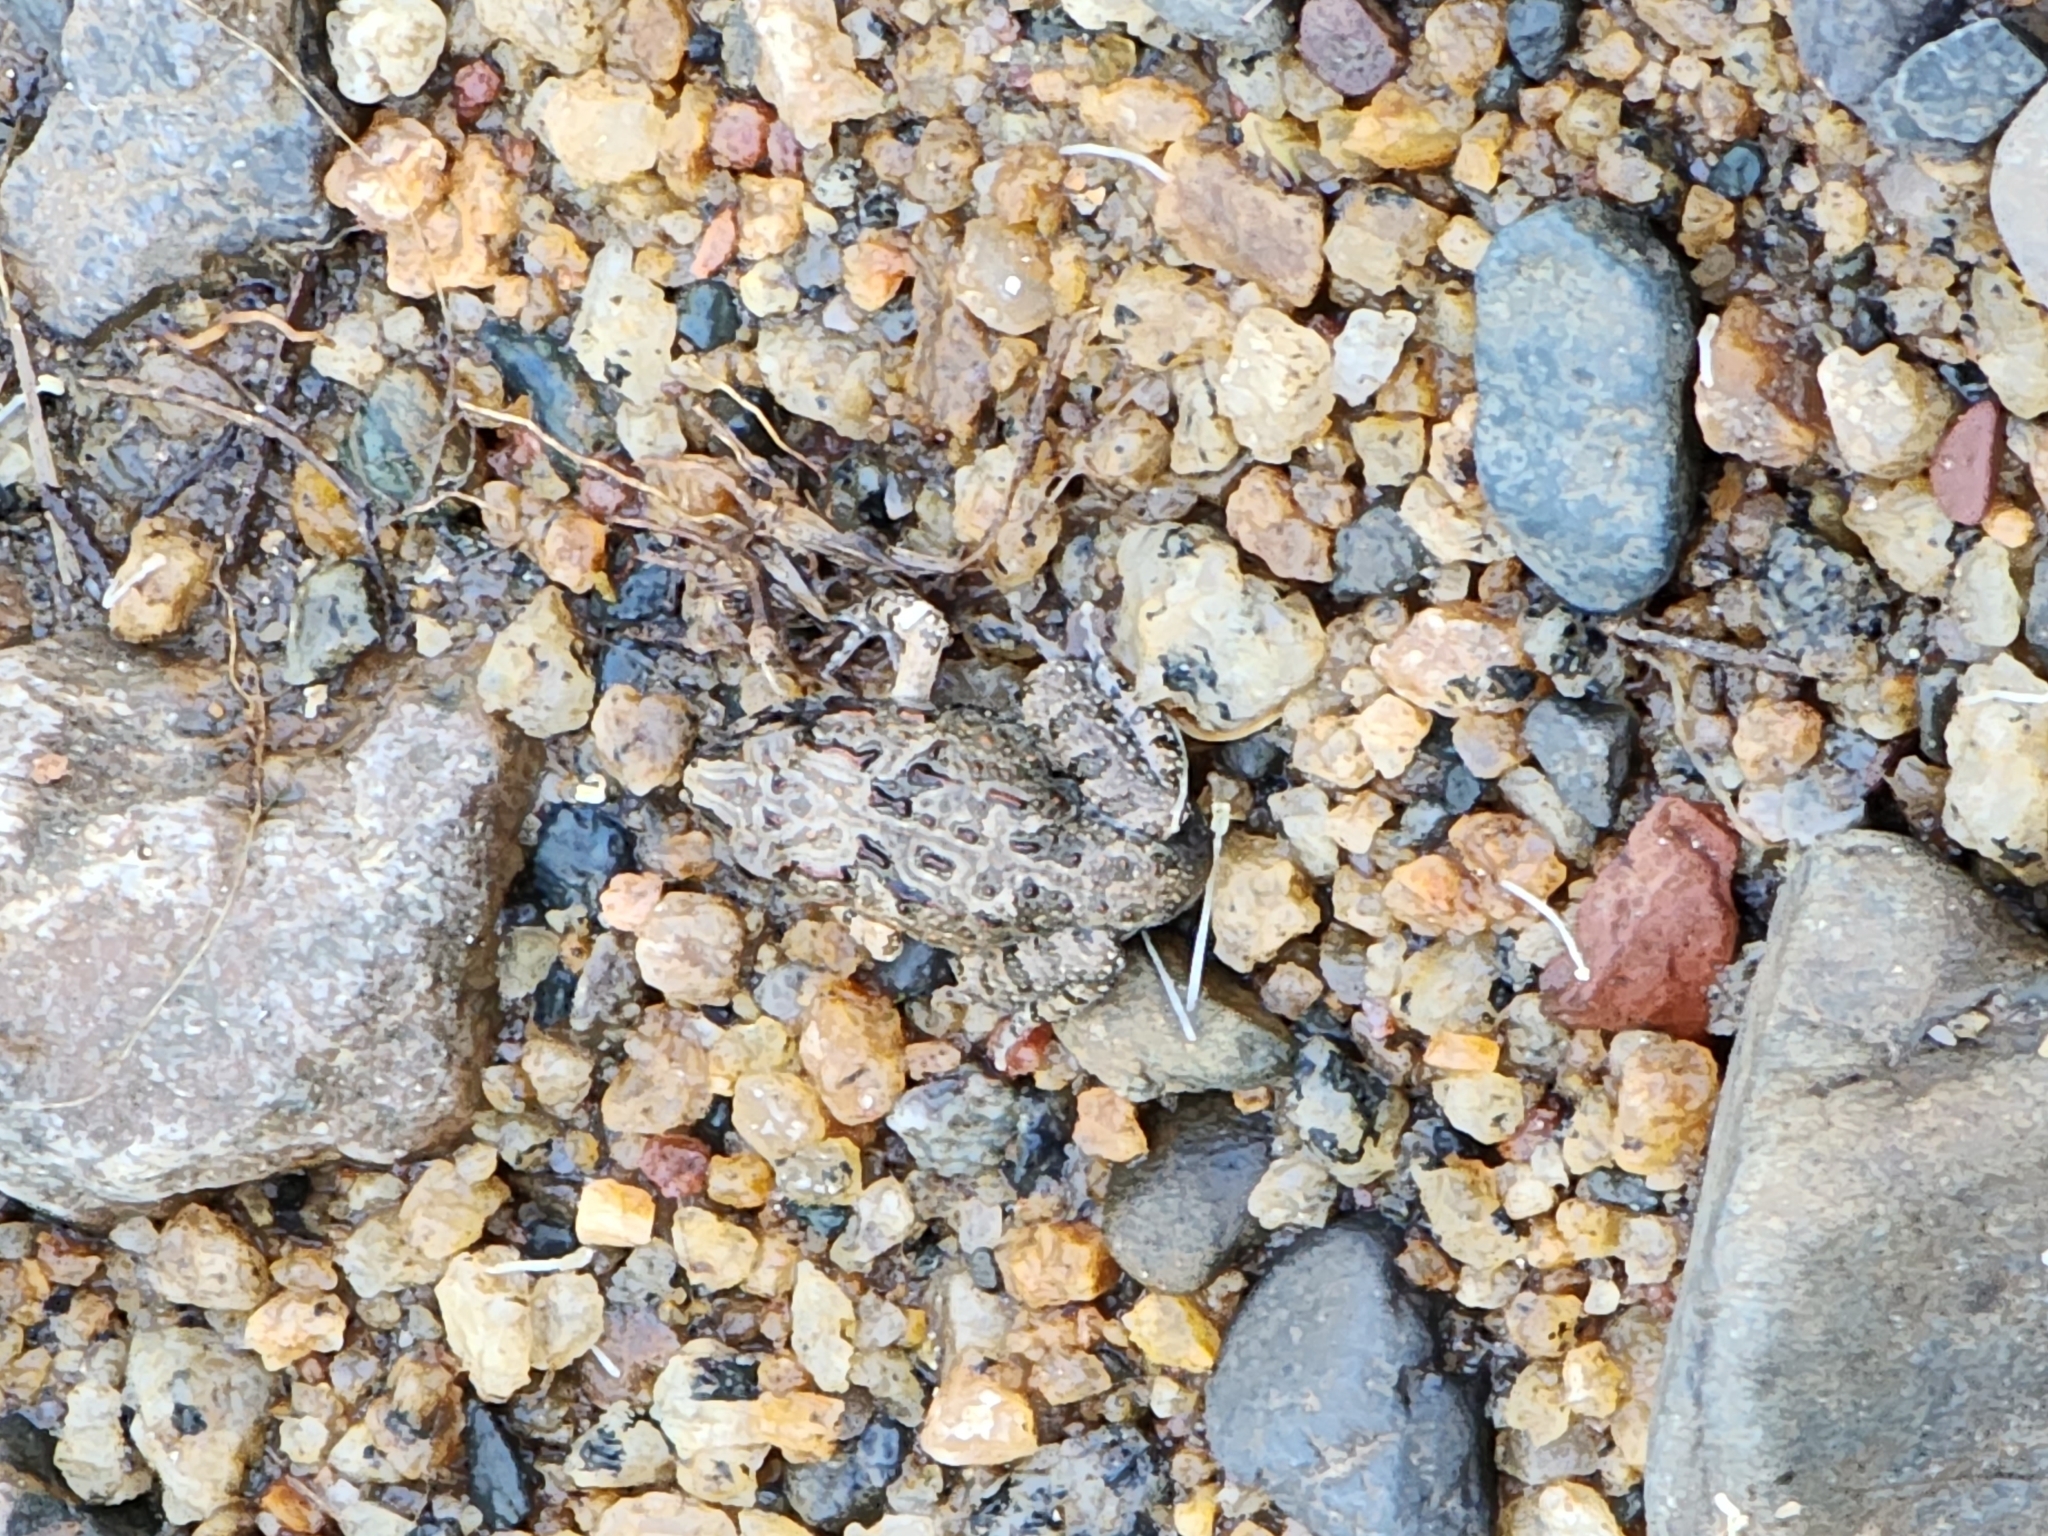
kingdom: Animalia
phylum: Chordata
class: Amphibia
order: Anura
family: Limnodynastidae
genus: Platyplectrum
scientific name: Platyplectrum ornatum
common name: Ornate burrowing frog
